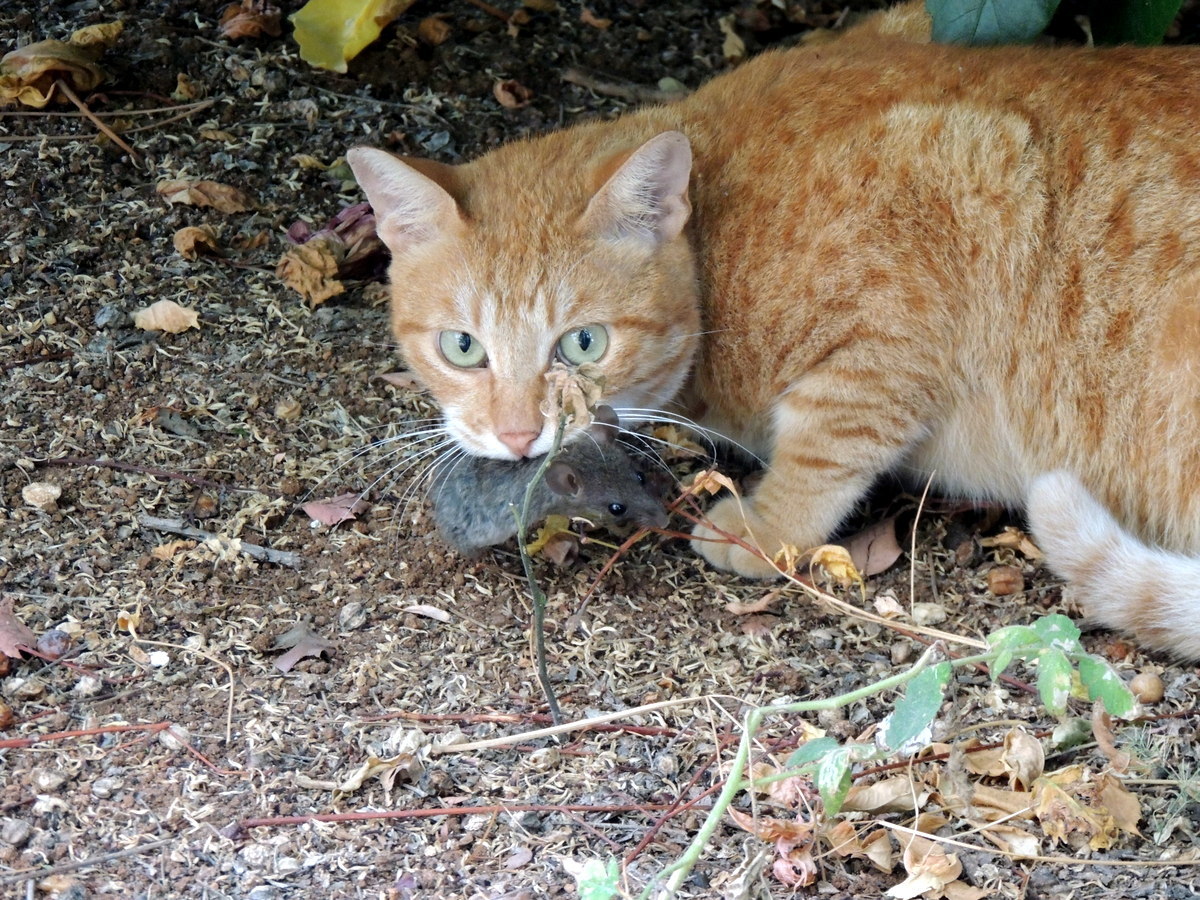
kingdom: Animalia
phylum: Chordata
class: Mammalia
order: Carnivora
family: Felidae
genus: Felis
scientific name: Felis catus
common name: Domestic cat
